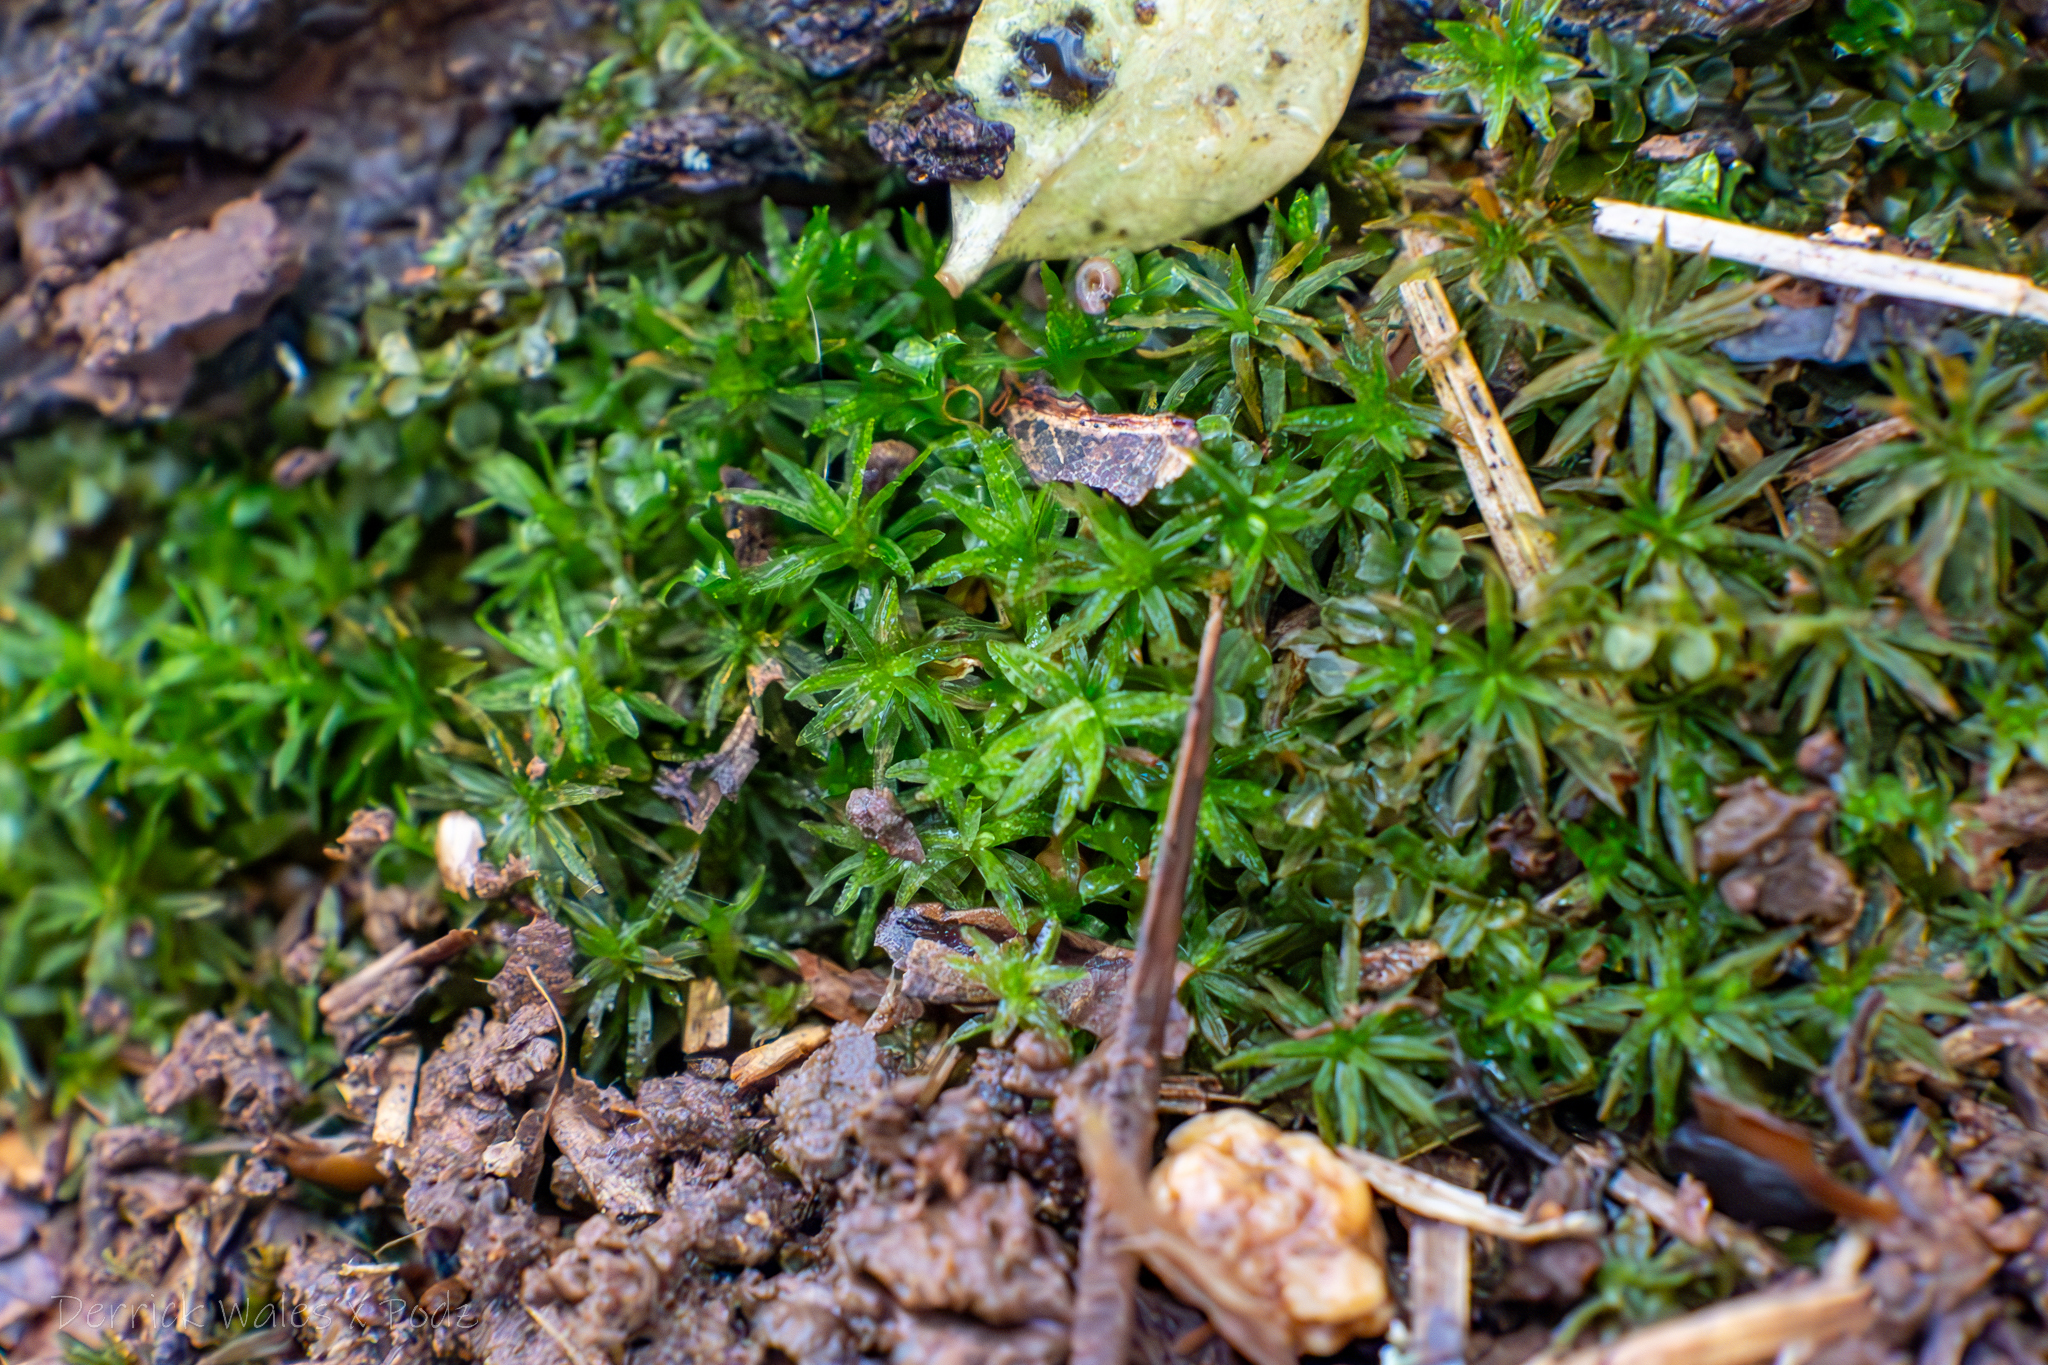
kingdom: Plantae
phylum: Bryophyta
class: Polytrichopsida
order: Polytrichales
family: Polytrichaceae
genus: Atrichum
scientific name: Atrichum angustatum
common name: Lesser smoothcap
